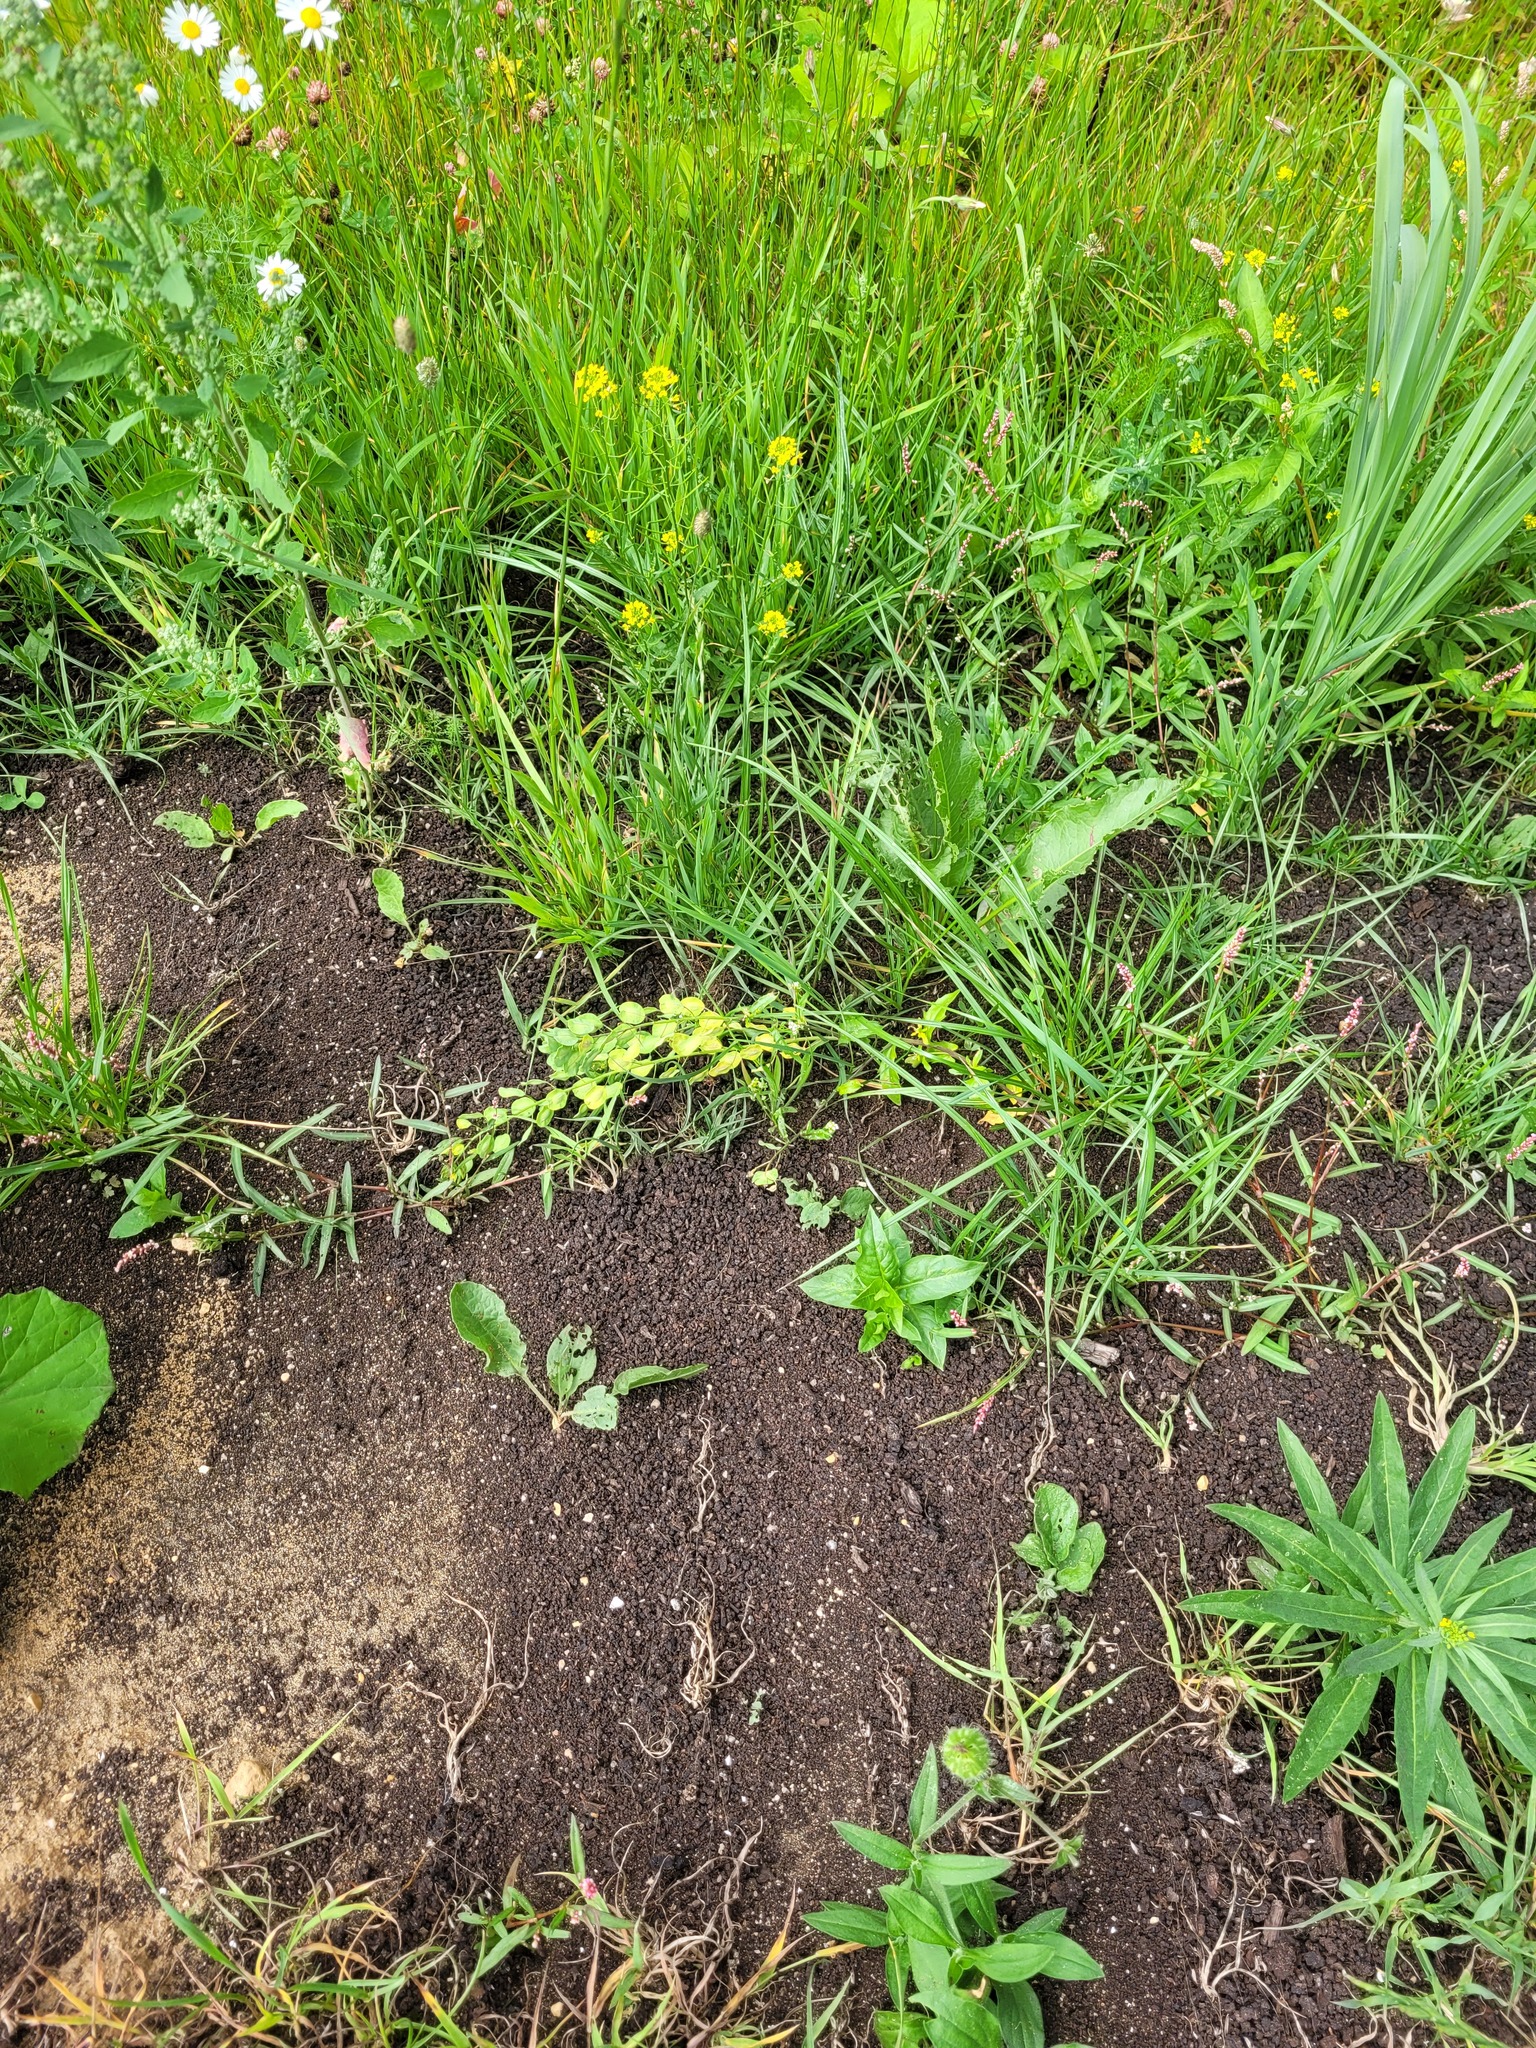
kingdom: Plantae
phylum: Tracheophyta
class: Magnoliopsida
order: Brassicales
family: Brassicaceae
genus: Thlaspi
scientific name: Thlaspi arvense
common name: Field pennycress
